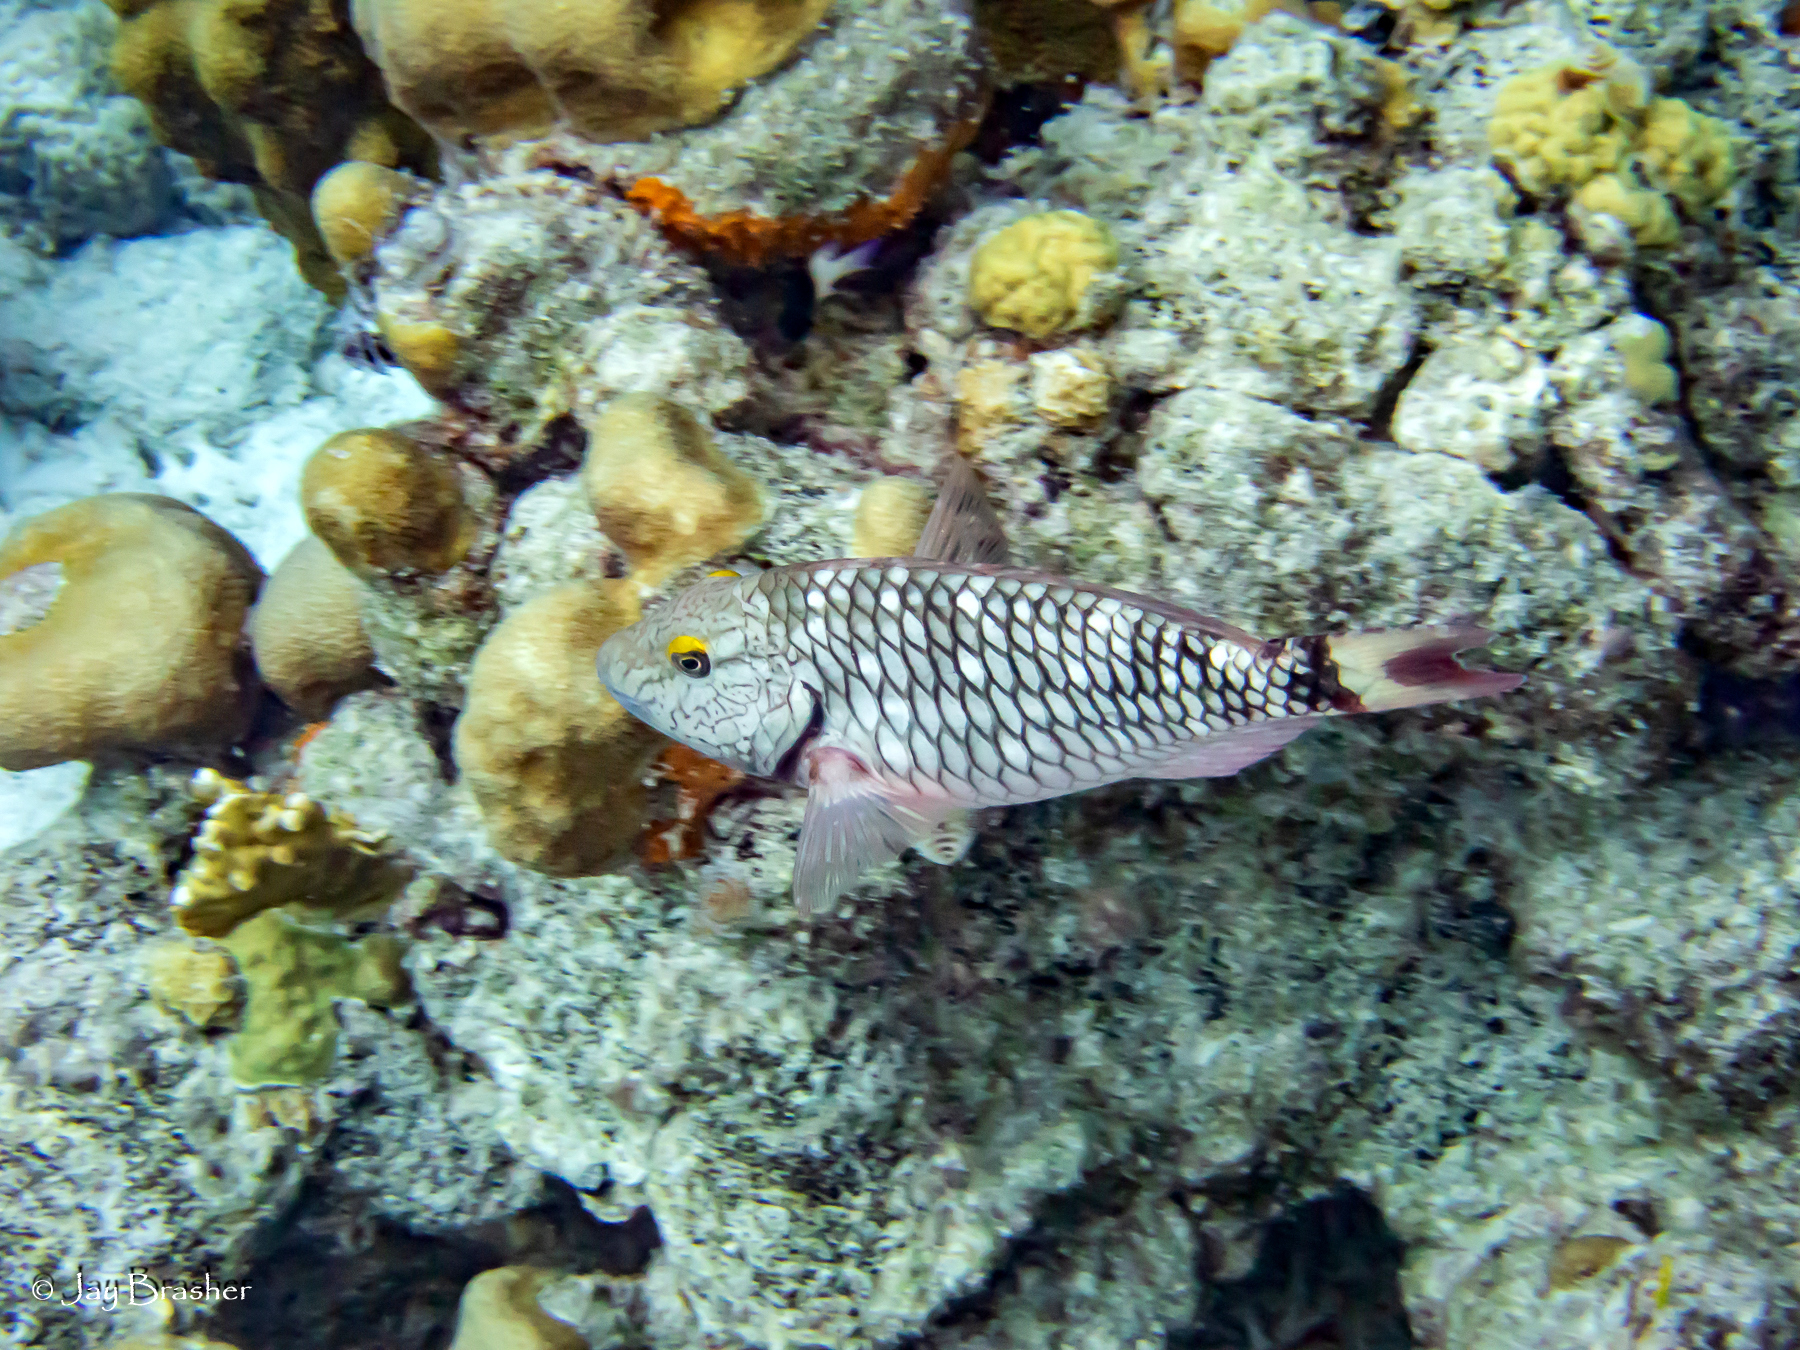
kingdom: Animalia
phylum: Chordata
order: Perciformes
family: Scaridae
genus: Sparisoma
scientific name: Sparisoma viride
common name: Stoplight parrotfish
